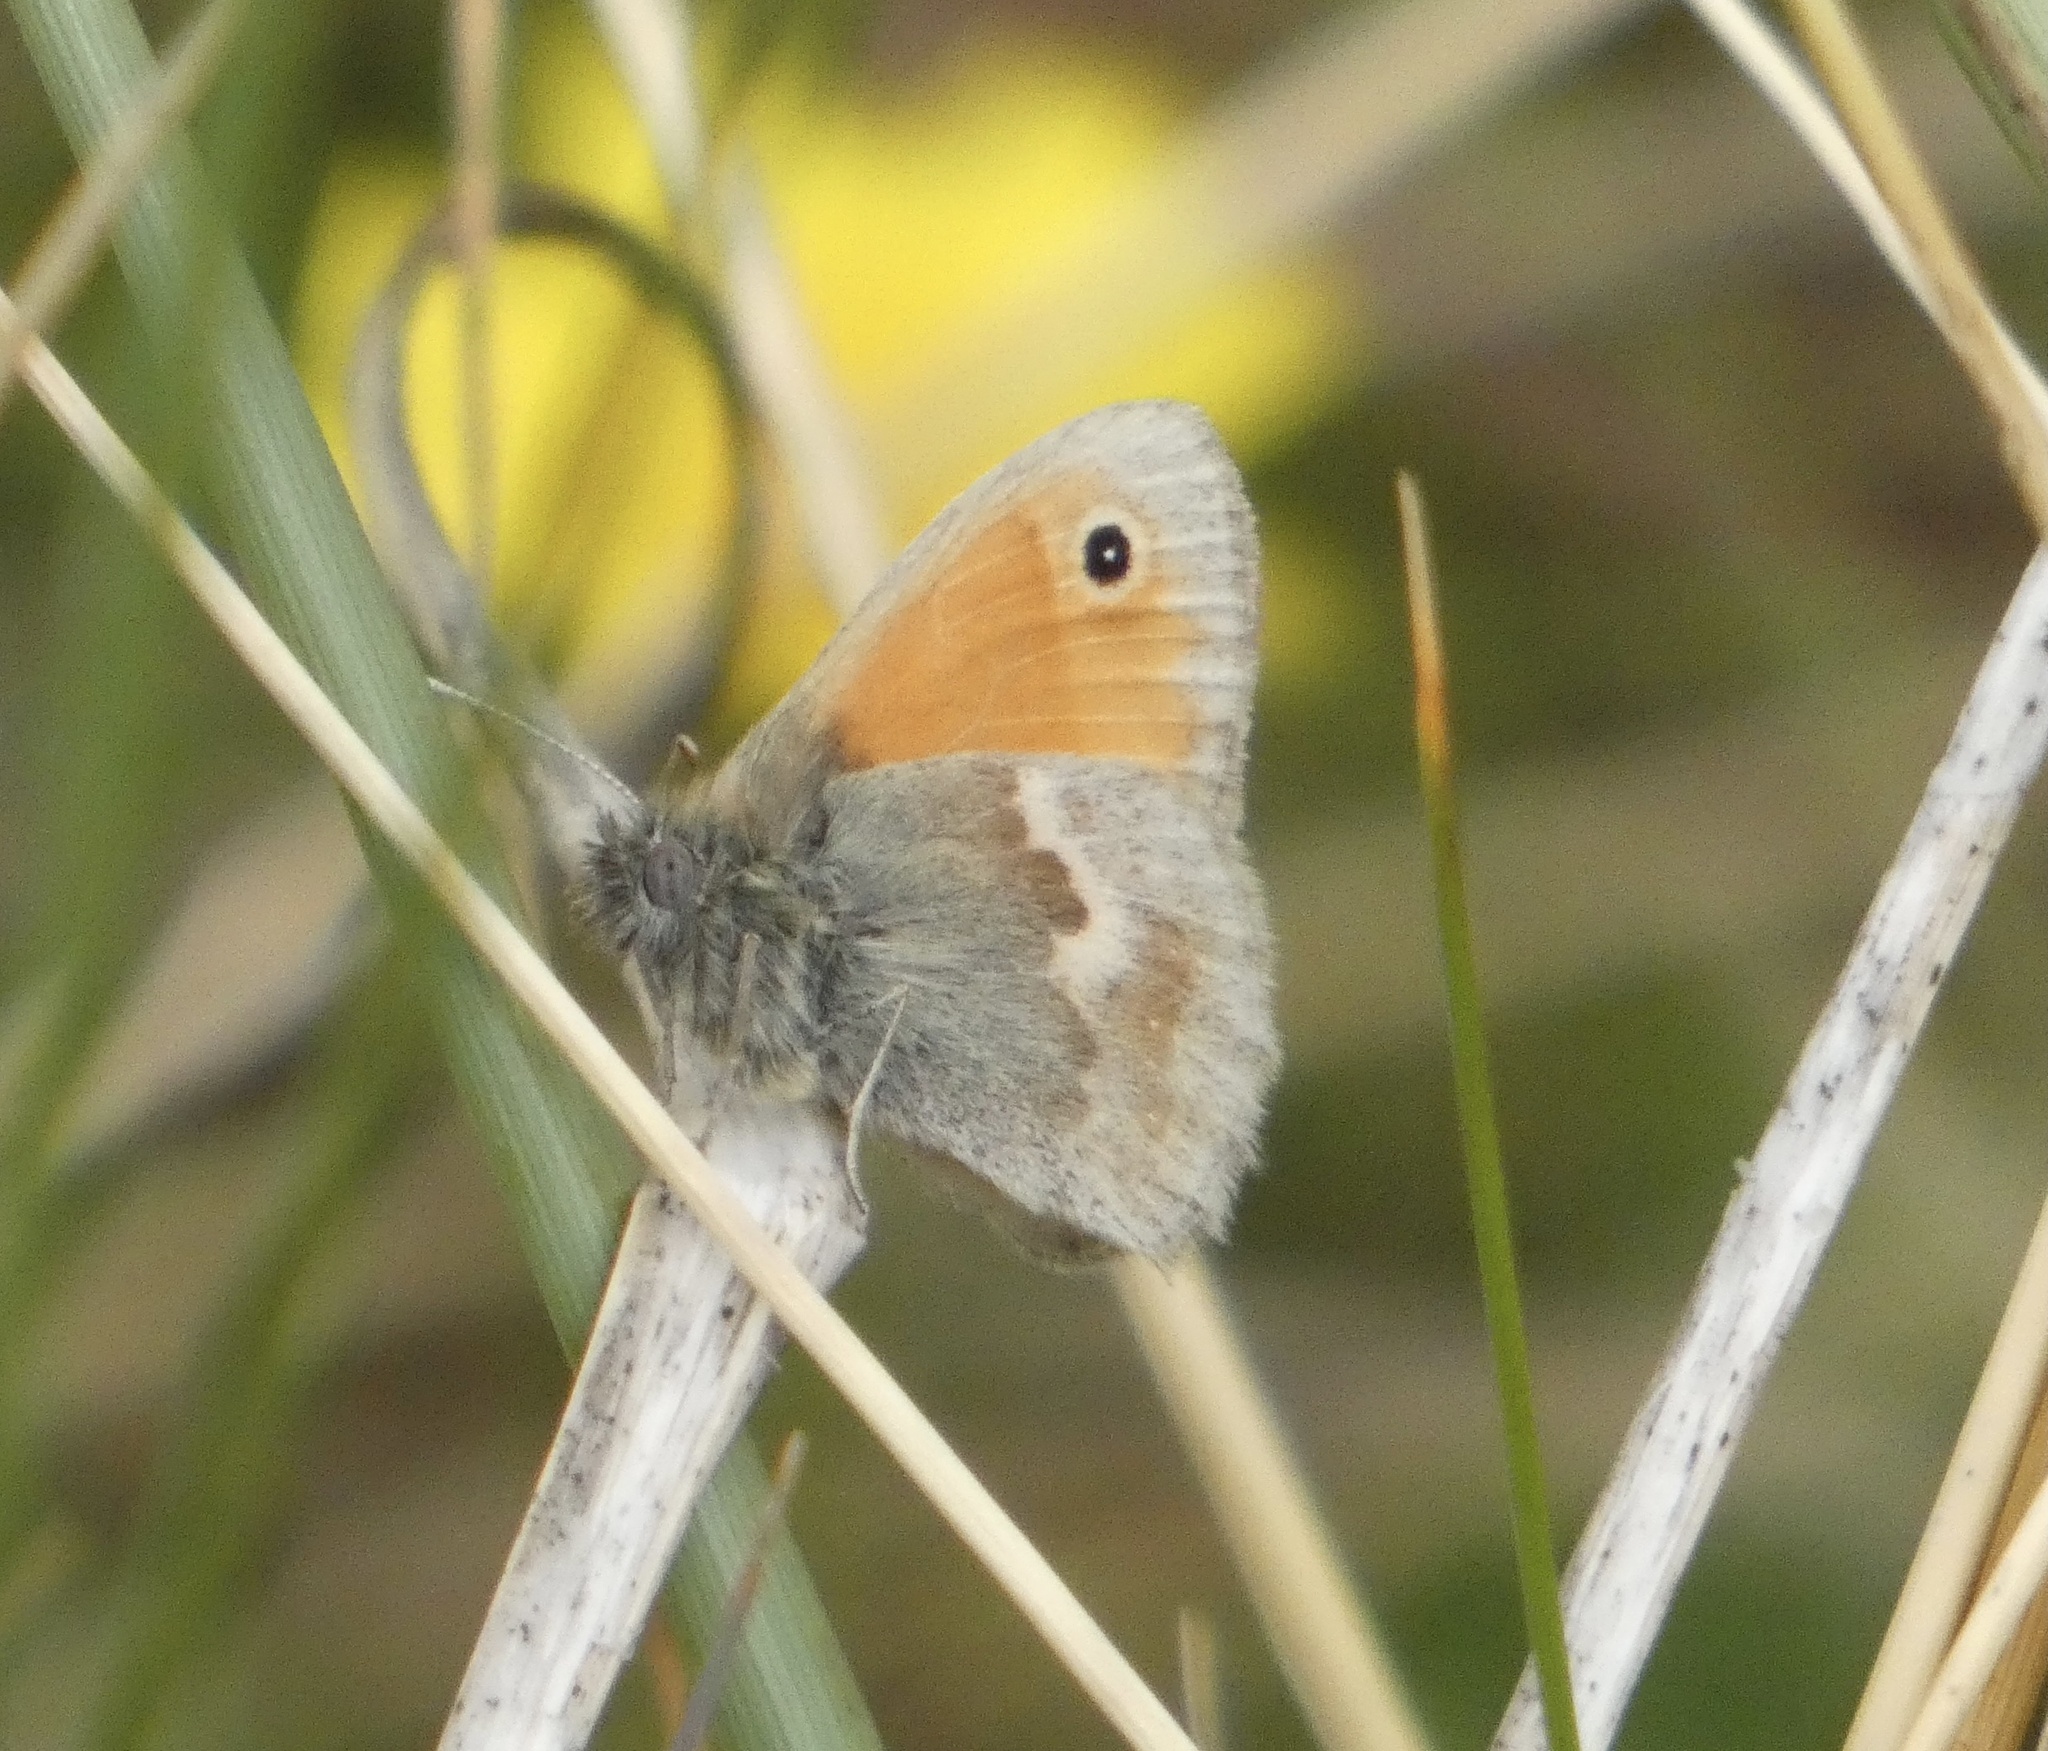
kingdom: Animalia
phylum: Arthropoda
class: Insecta
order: Lepidoptera
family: Nymphalidae
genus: Coenonympha
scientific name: Coenonympha pamphilus
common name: Small heath
